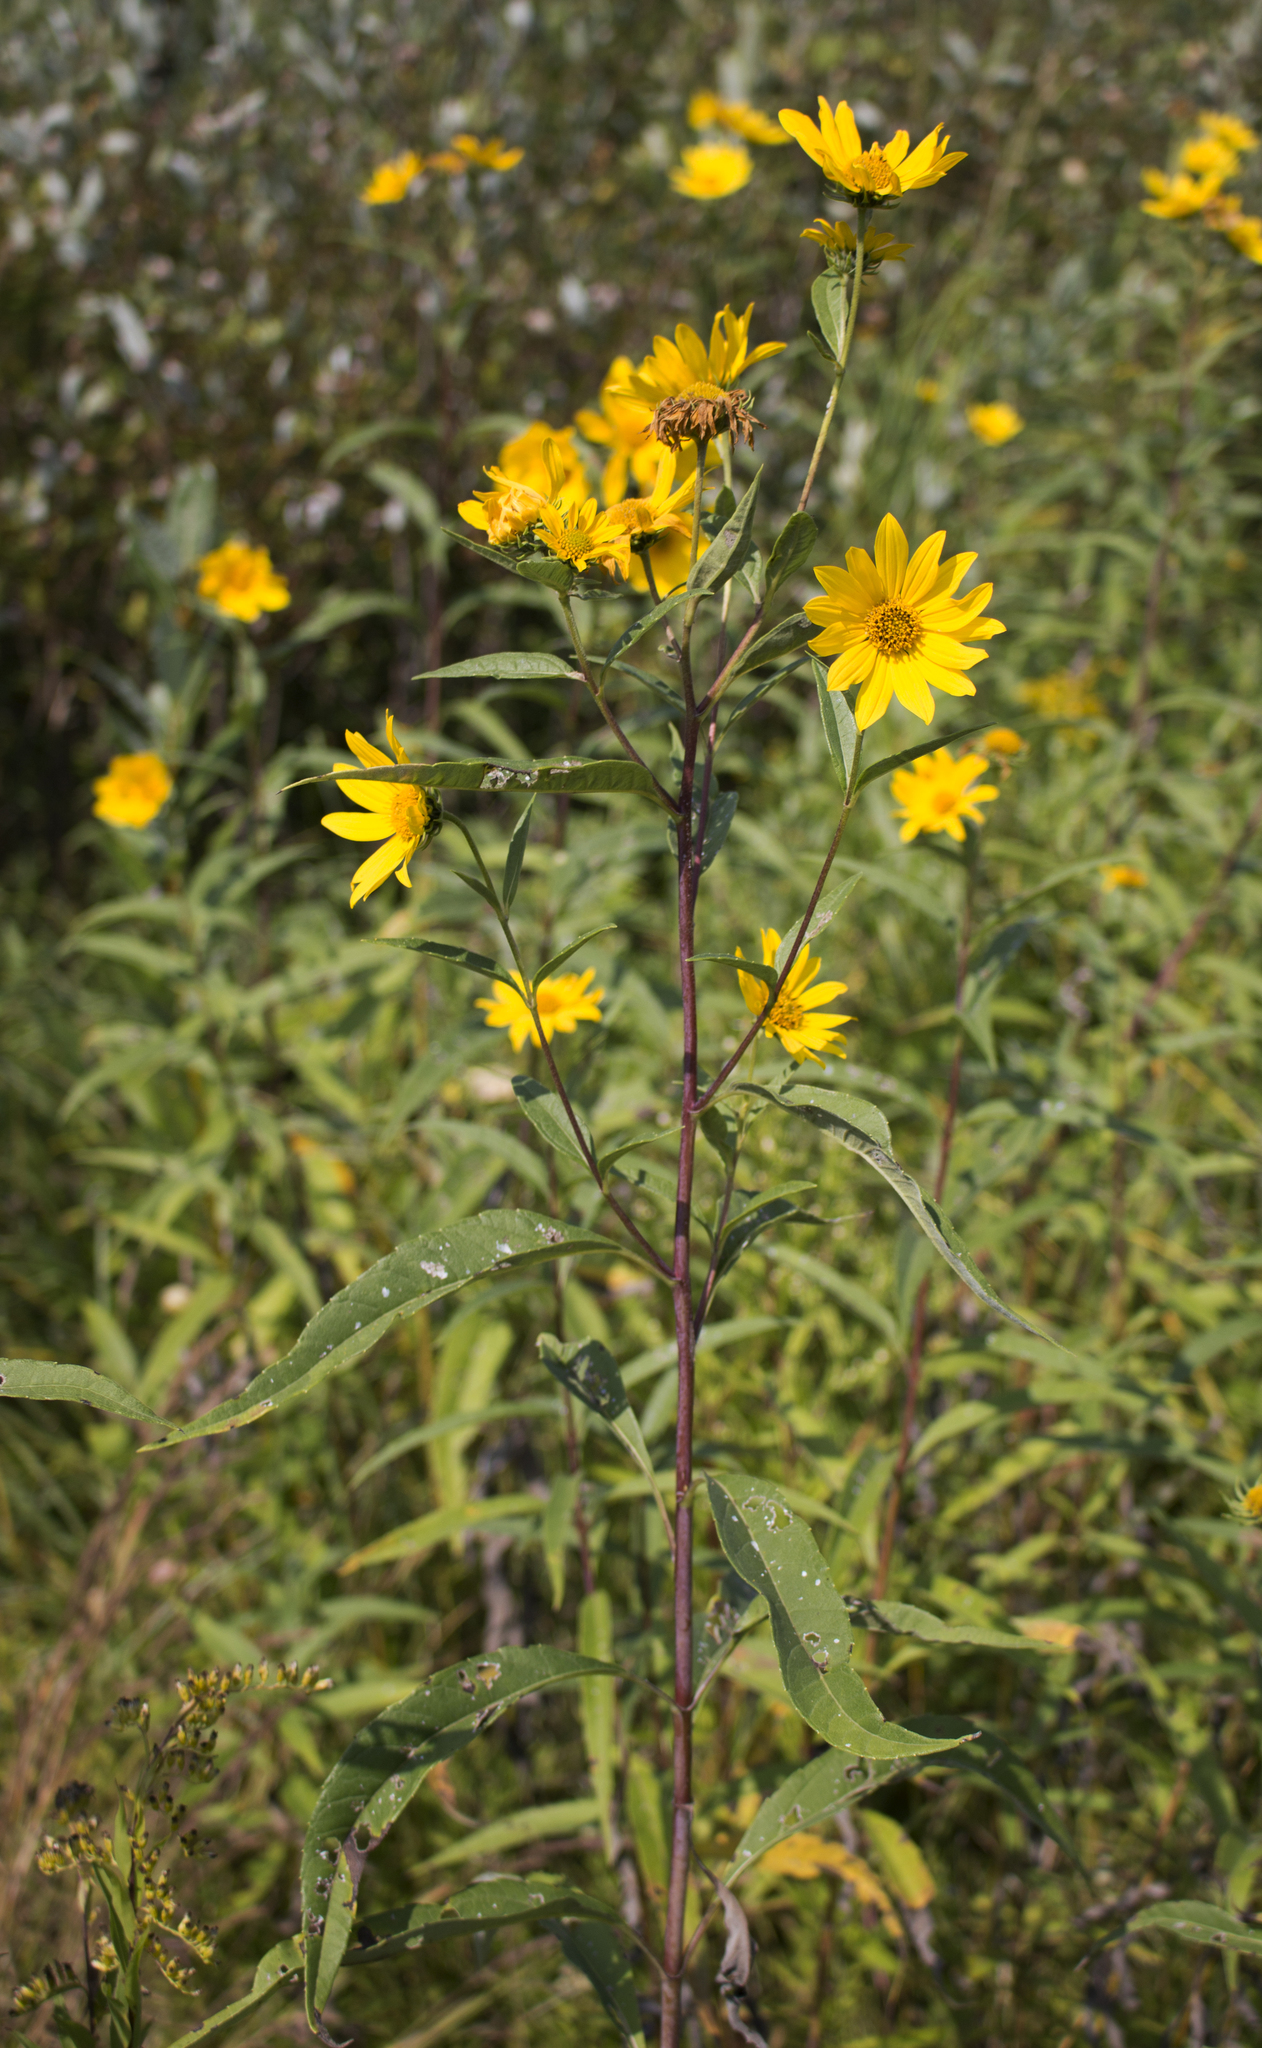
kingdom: Plantae
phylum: Tracheophyta
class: Magnoliopsida
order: Asterales
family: Asteraceae
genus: Helianthus
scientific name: Helianthus grosseserratus
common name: Sawtooth sunflower
